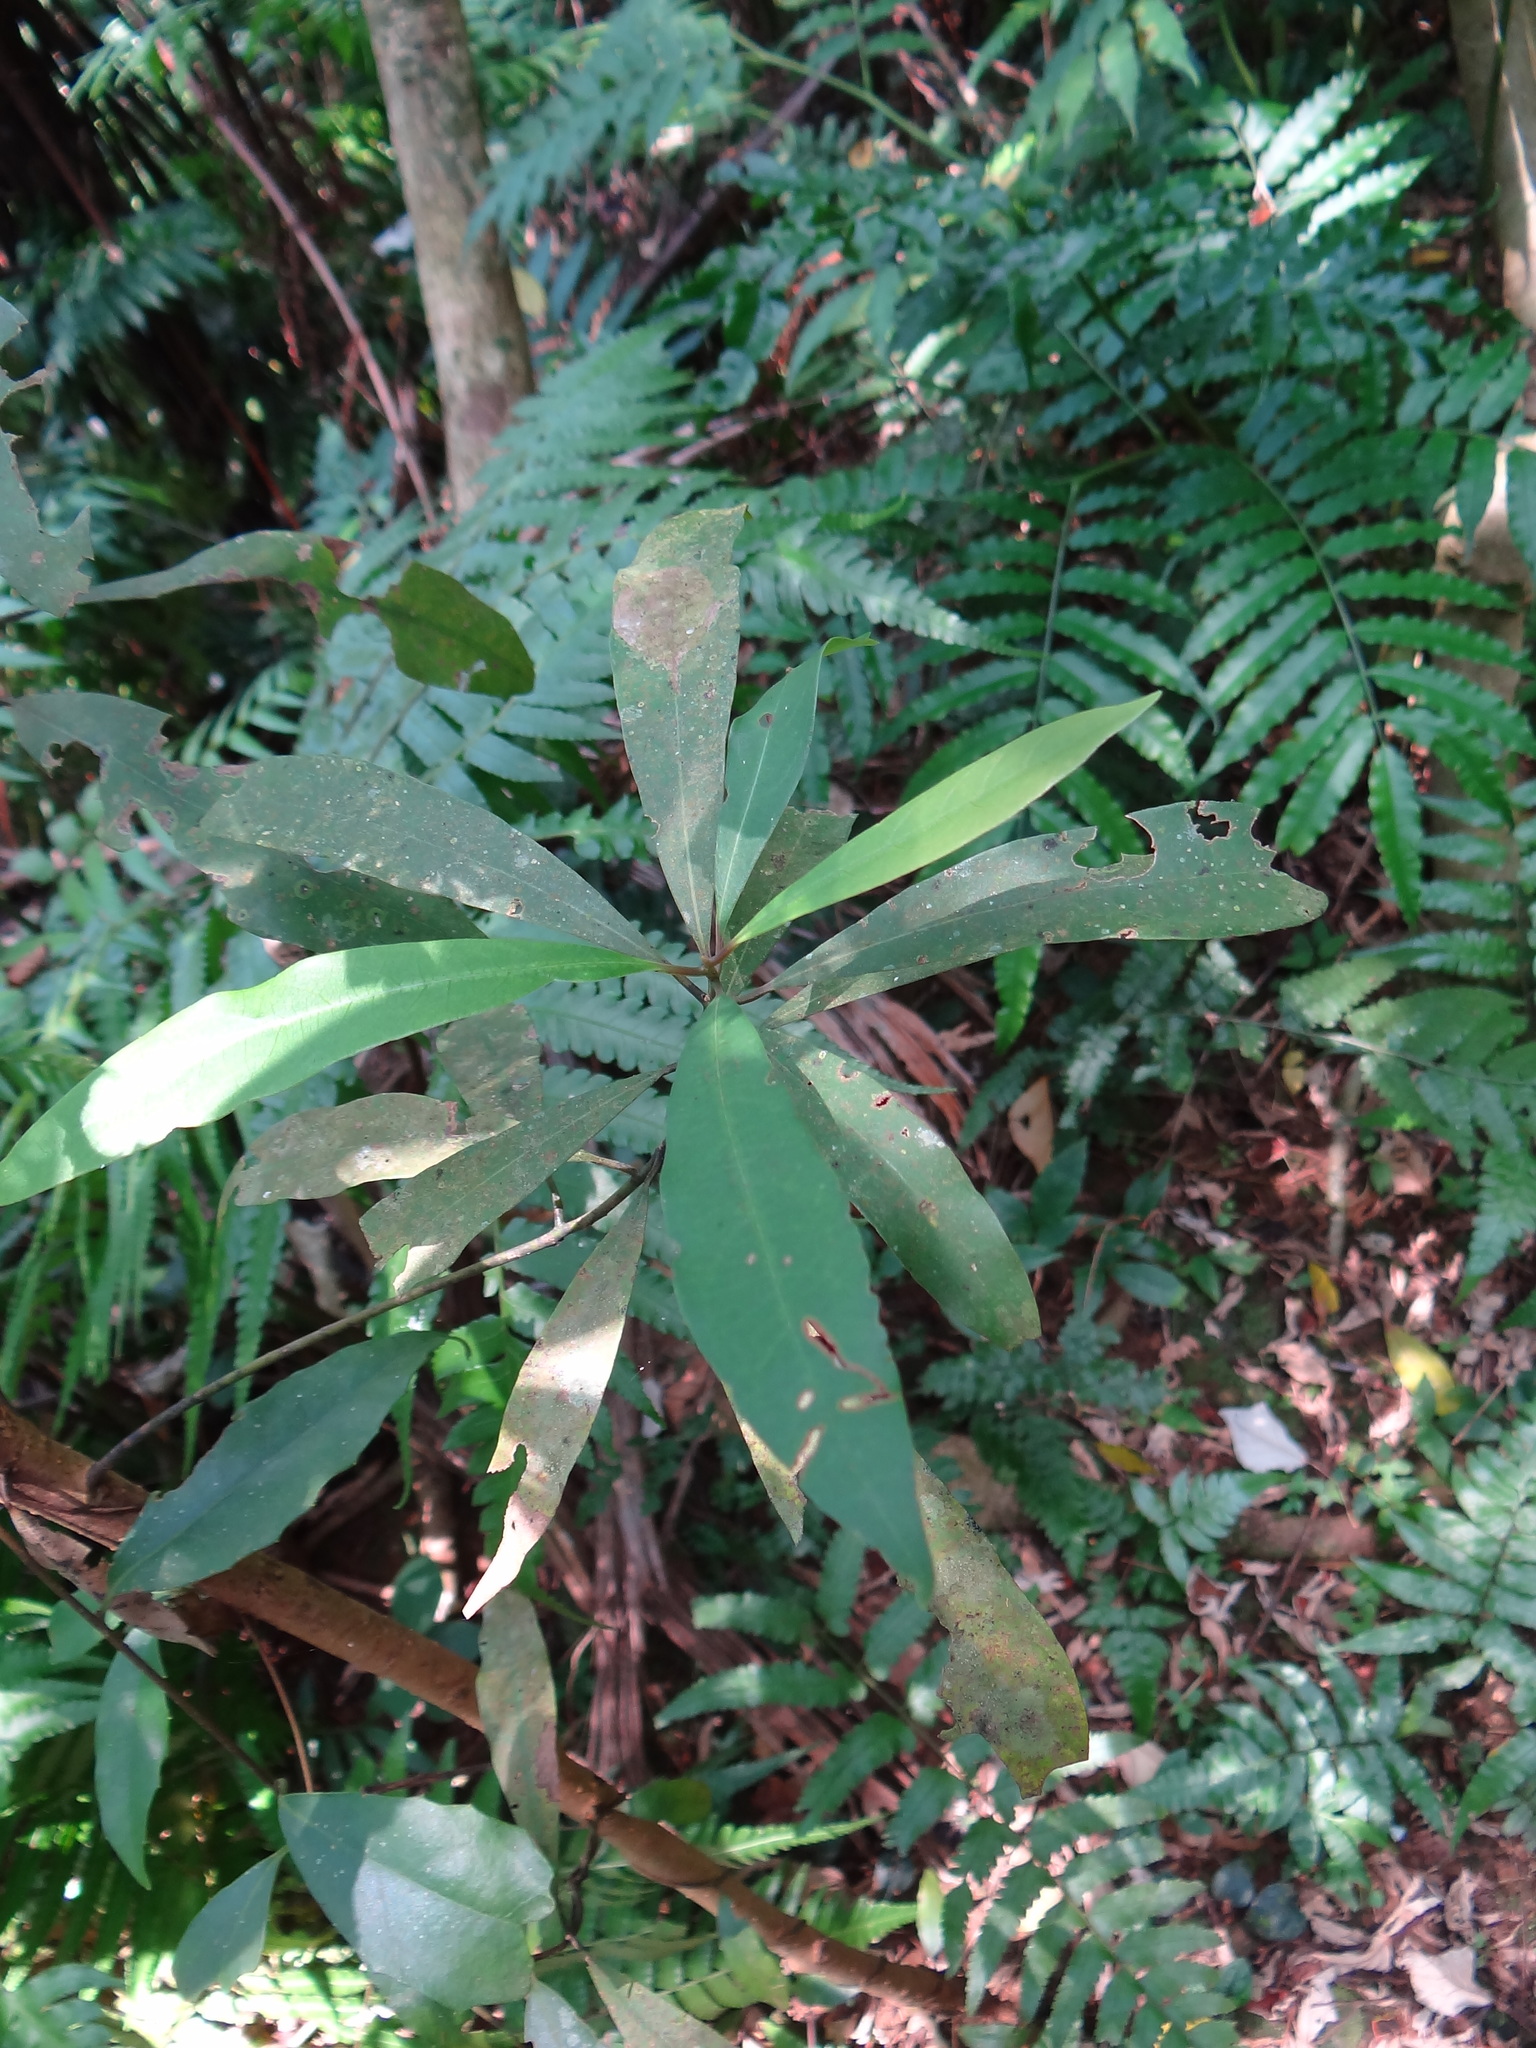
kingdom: Animalia
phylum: Arthropoda
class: Insecta
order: Diptera
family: Cecidomyiidae
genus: Daphnephila
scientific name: Daphnephila truncicola
